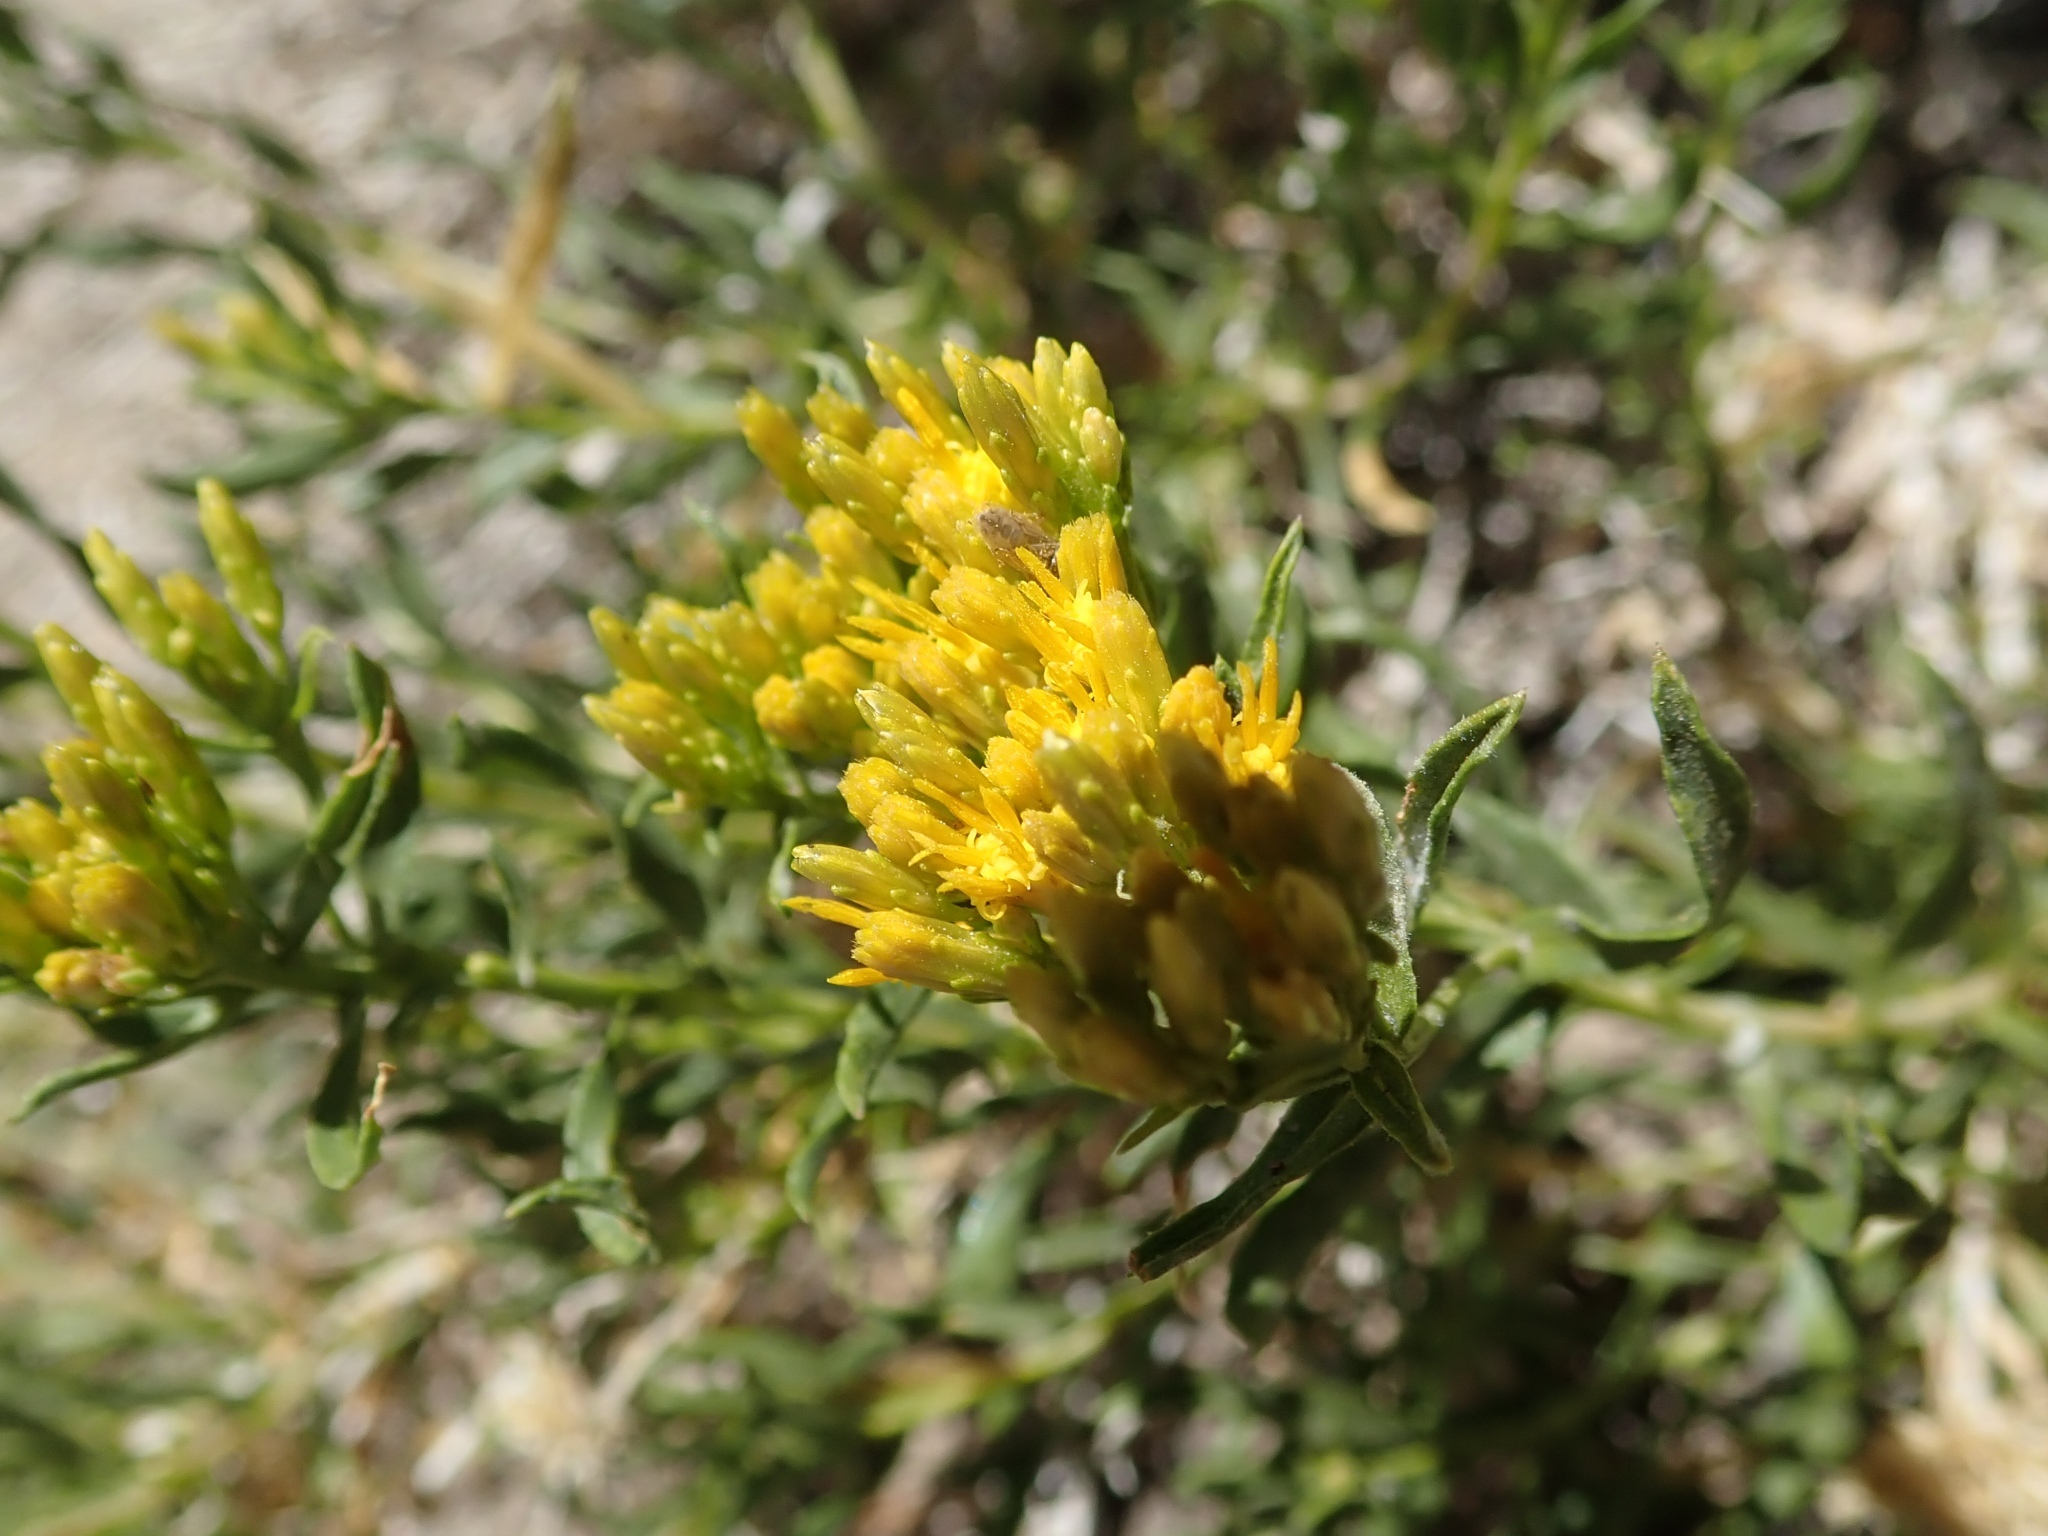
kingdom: Plantae
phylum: Tracheophyta
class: Magnoliopsida
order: Asterales
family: Asteraceae
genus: Chrysothamnus
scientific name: Chrysothamnus viscidiflorus
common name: Yellow rabbitbrush
